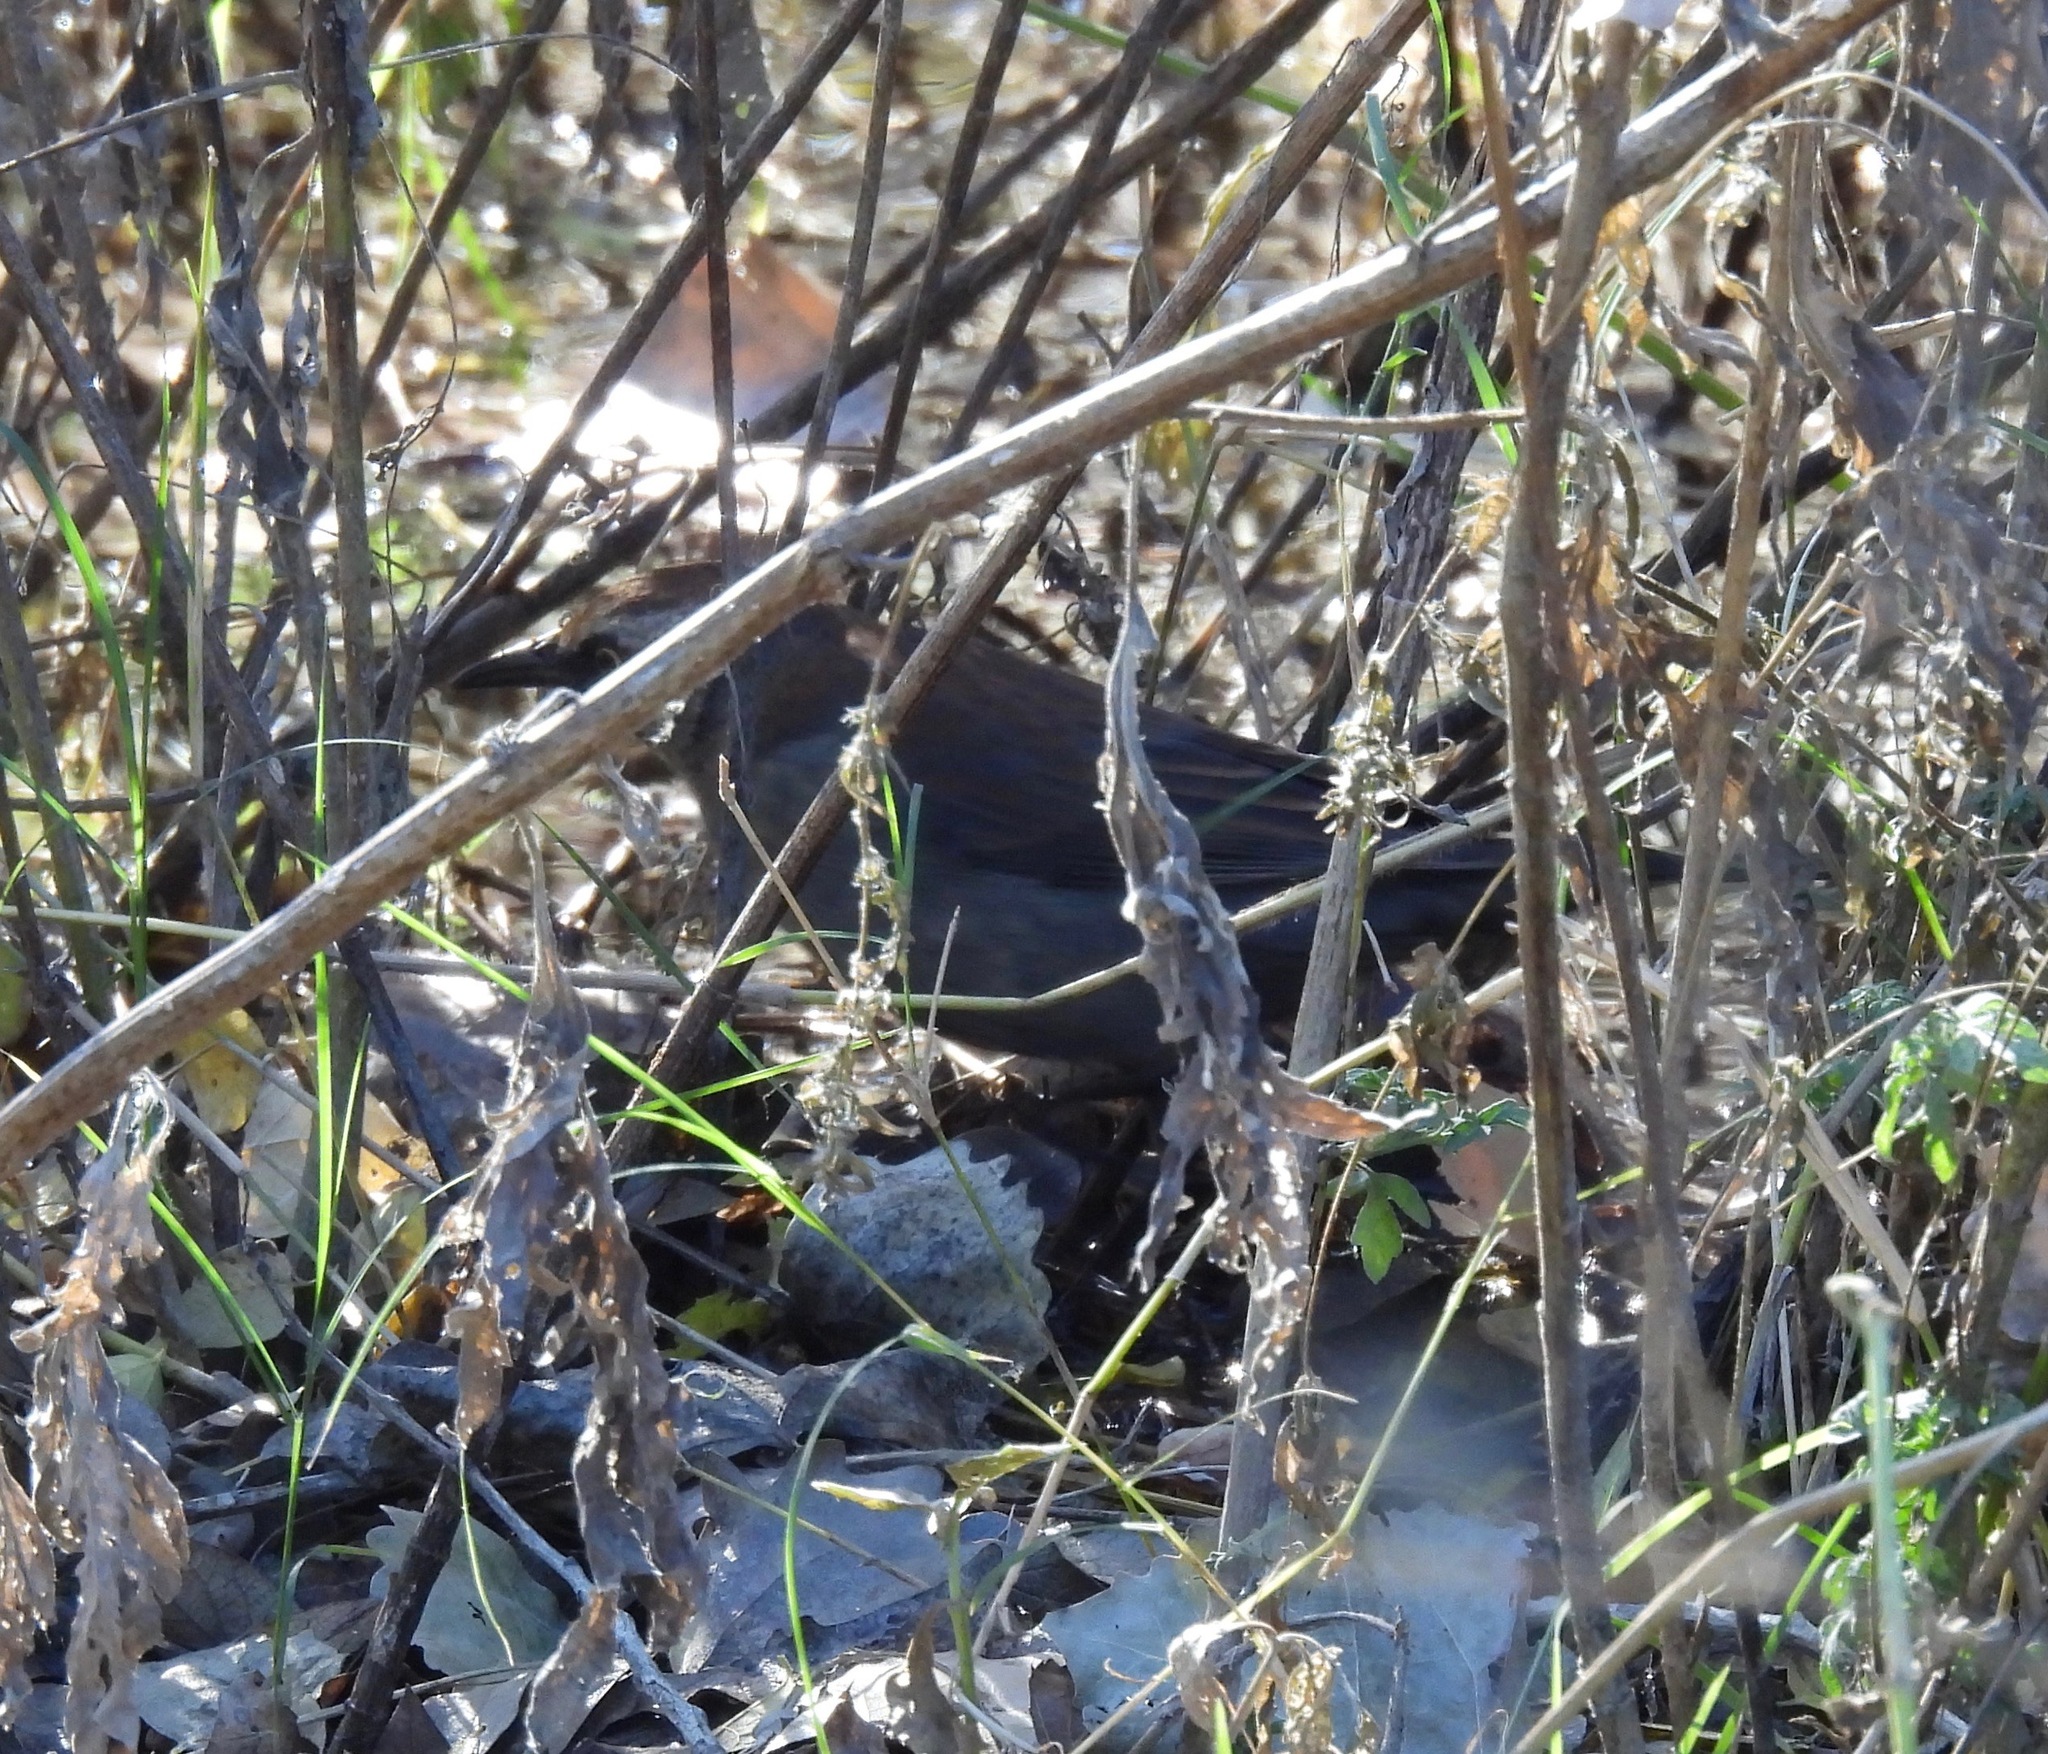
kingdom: Animalia
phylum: Chordata
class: Aves
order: Passeriformes
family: Icteridae
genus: Euphagus
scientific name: Euphagus carolinus
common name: Rusty blackbird
